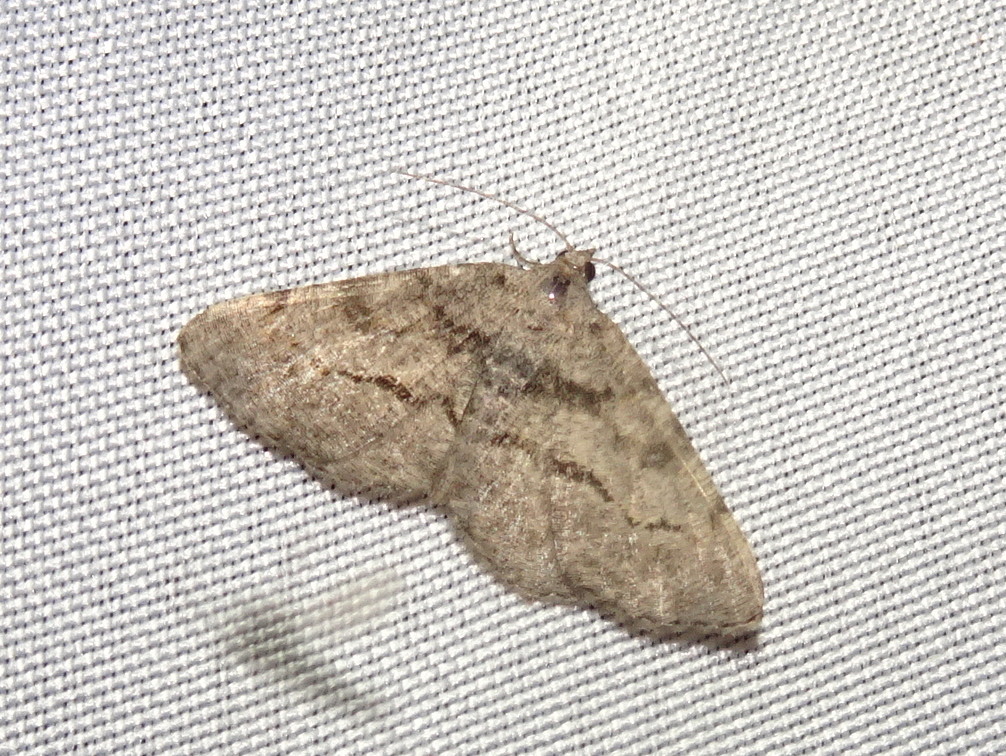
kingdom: Animalia
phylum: Arthropoda
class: Insecta
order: Lepidoptera
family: Geometridae
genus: Digrammia
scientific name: Digrammia gnophosaria
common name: Hollow-spotted angle
